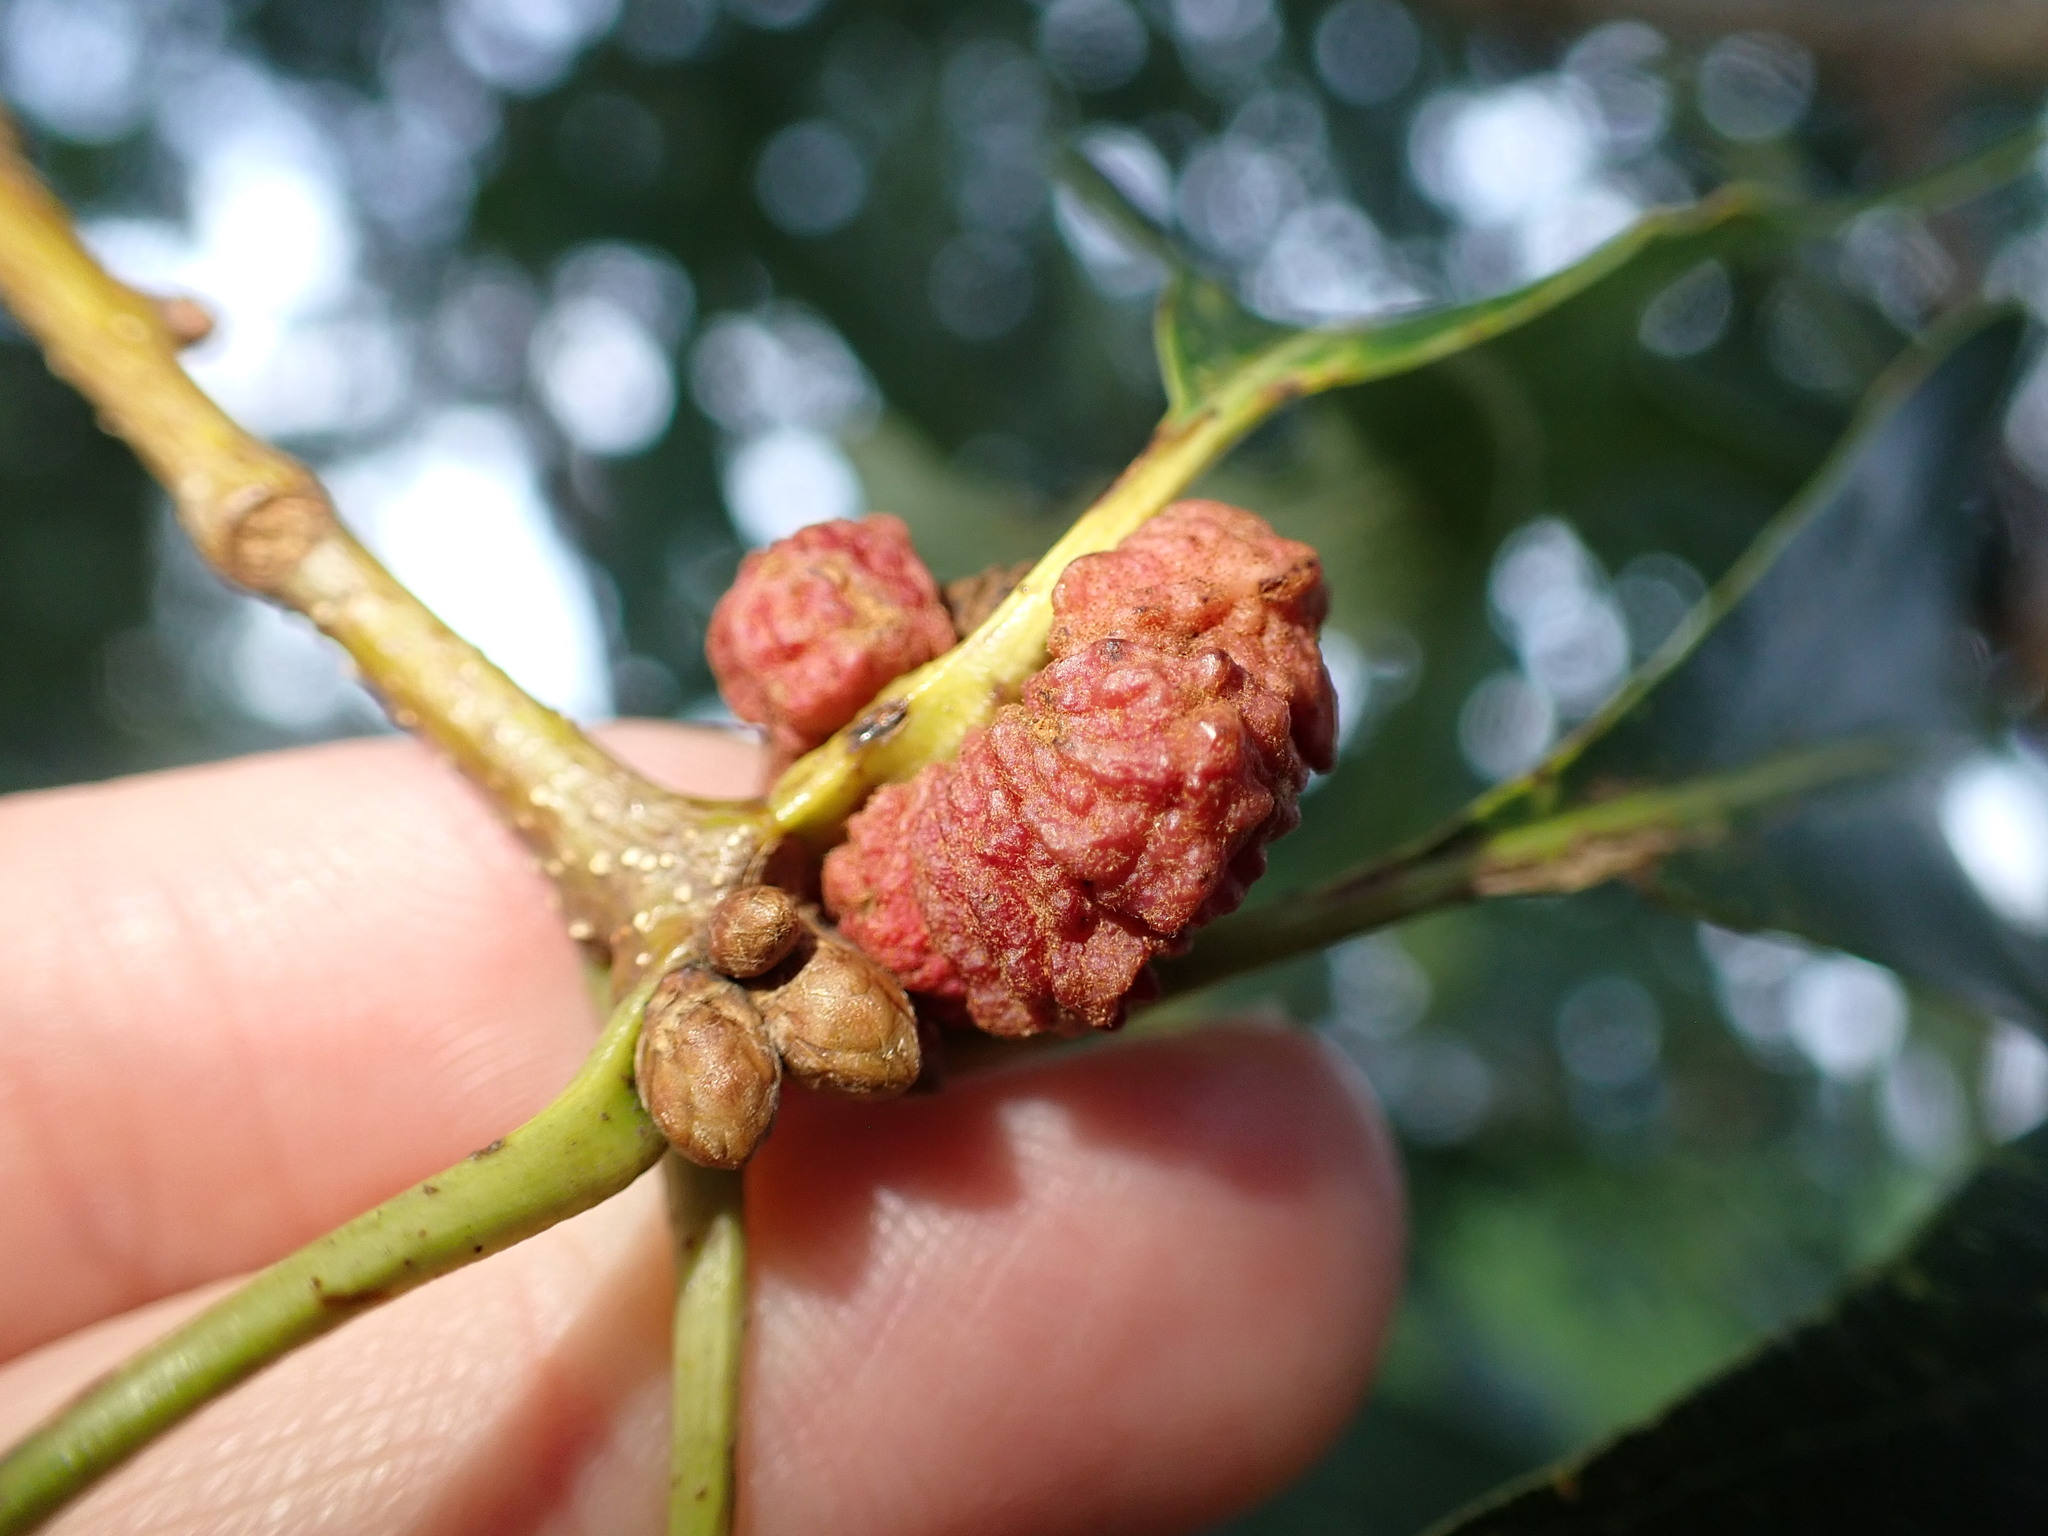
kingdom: Animalia
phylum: Arthropoda
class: Insecta
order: Hymenoptera
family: Cynipidae
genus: Andricus
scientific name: Andricus
